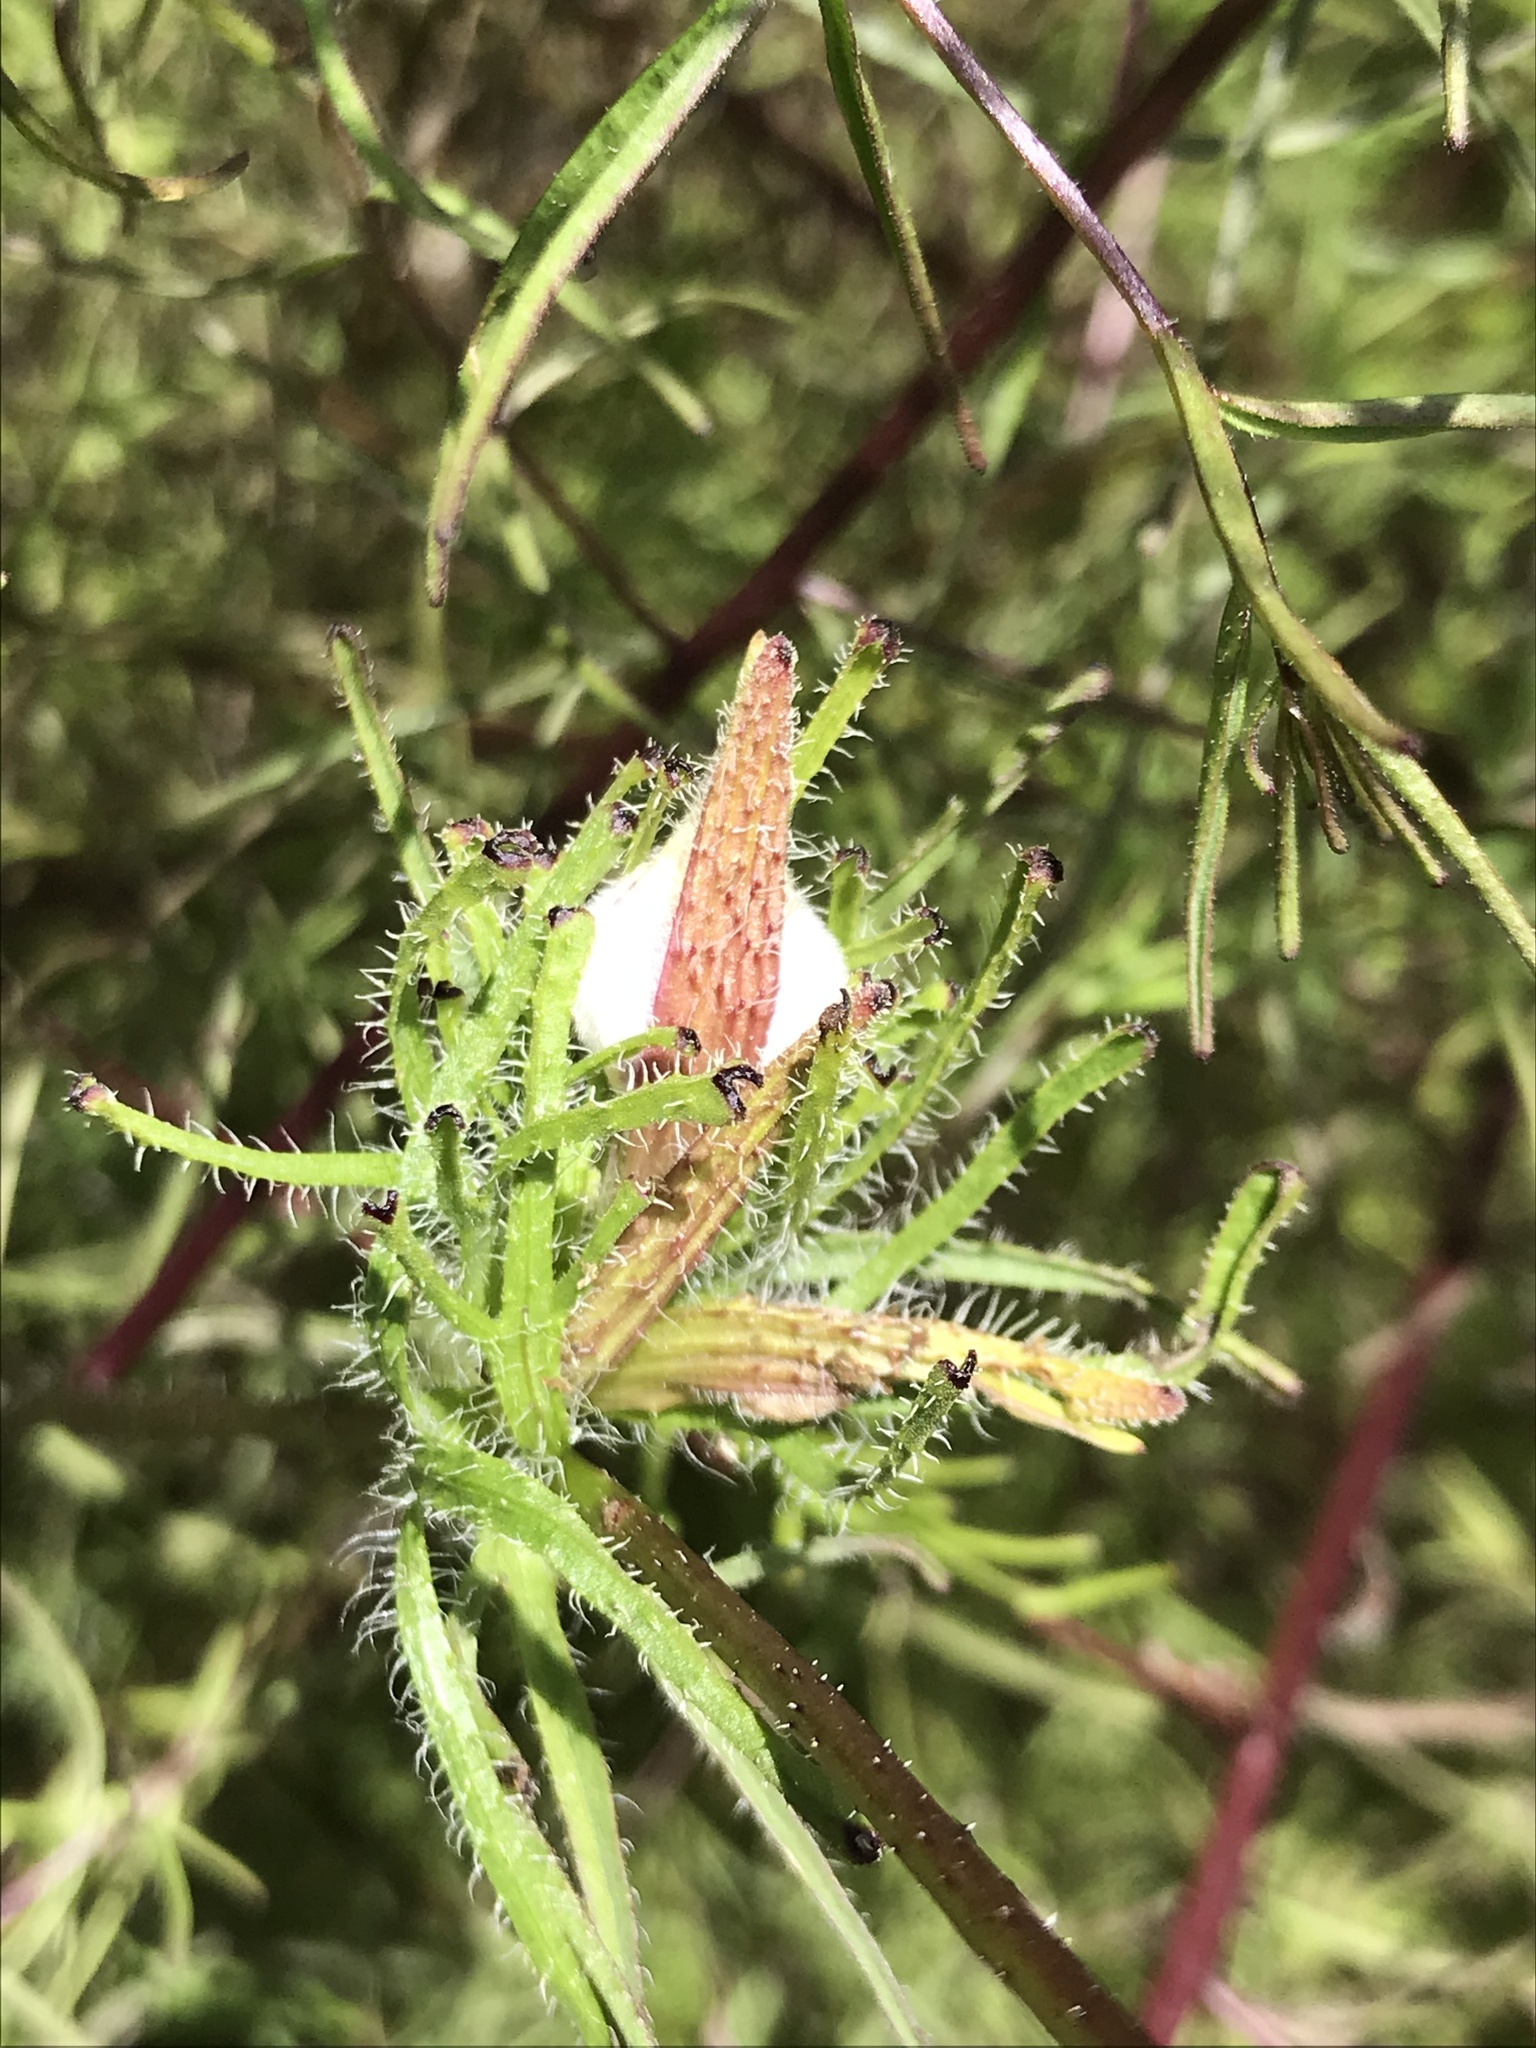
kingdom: Plantae
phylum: Tracheophyta
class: Magnoliopsida
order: Lamiales
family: Orobanchaceae
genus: Cordylanthus
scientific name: Cordylanthus rigidus
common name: Stiff-branch bird's-beak
